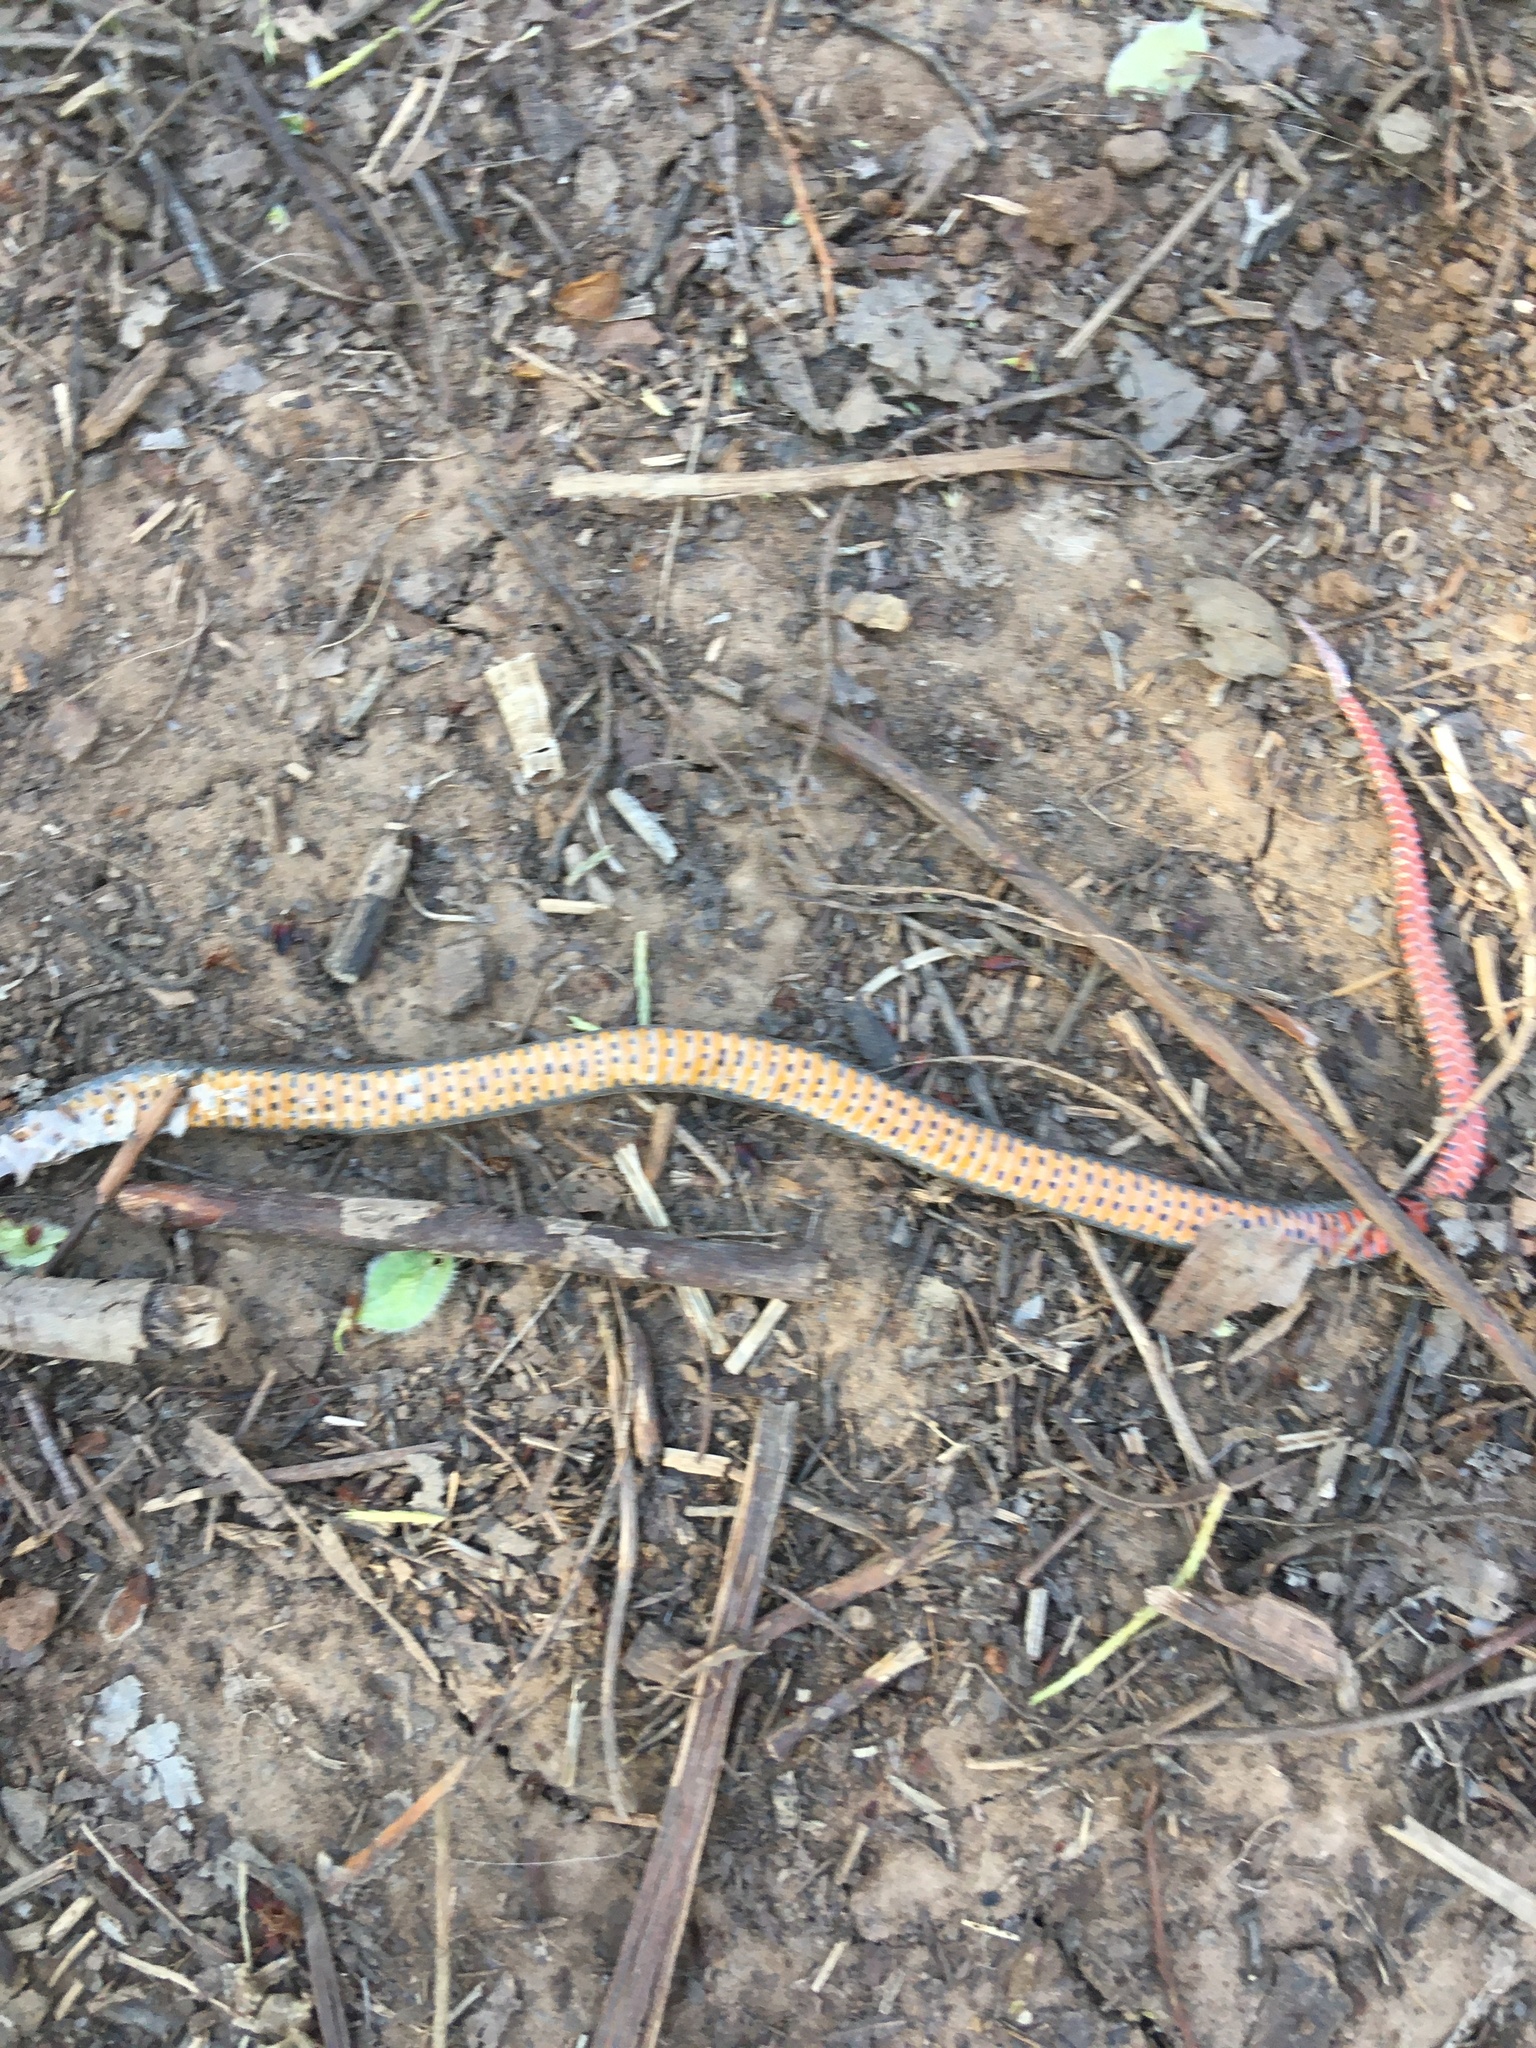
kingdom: Animalia
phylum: Chordata
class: Squamata
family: Colubridae
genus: Diadophis
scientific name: Diadophis punctatus
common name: Ringneck snake
